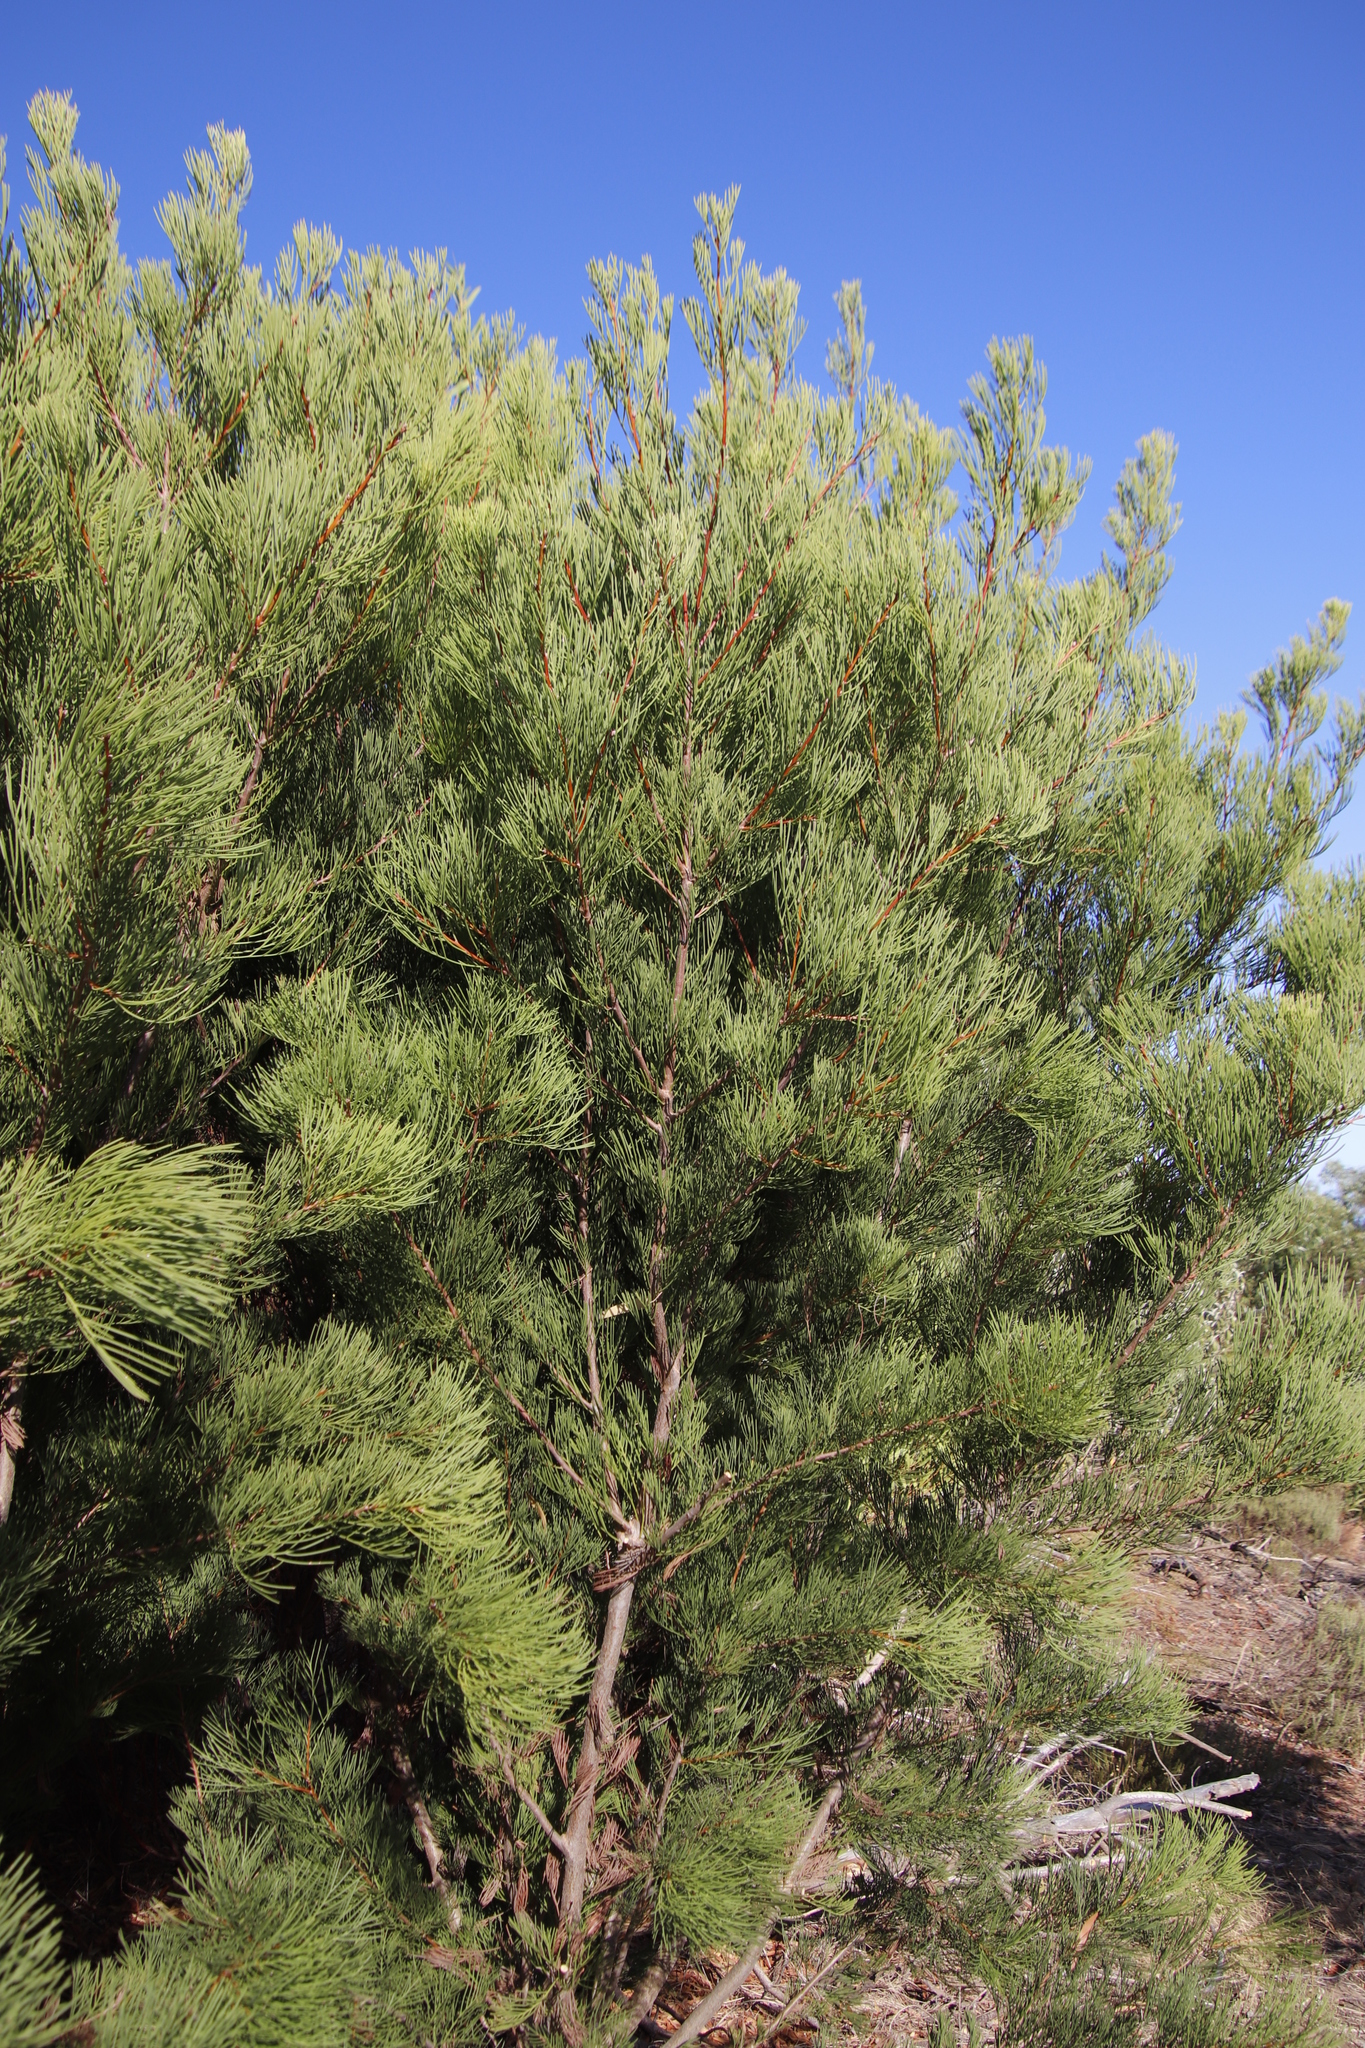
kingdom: Plantae
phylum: Tracheophyta
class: Magnoliopsida
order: Proteales
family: Proteaceae
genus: Hakea
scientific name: Hakea drupacea
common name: Sweet hakea
